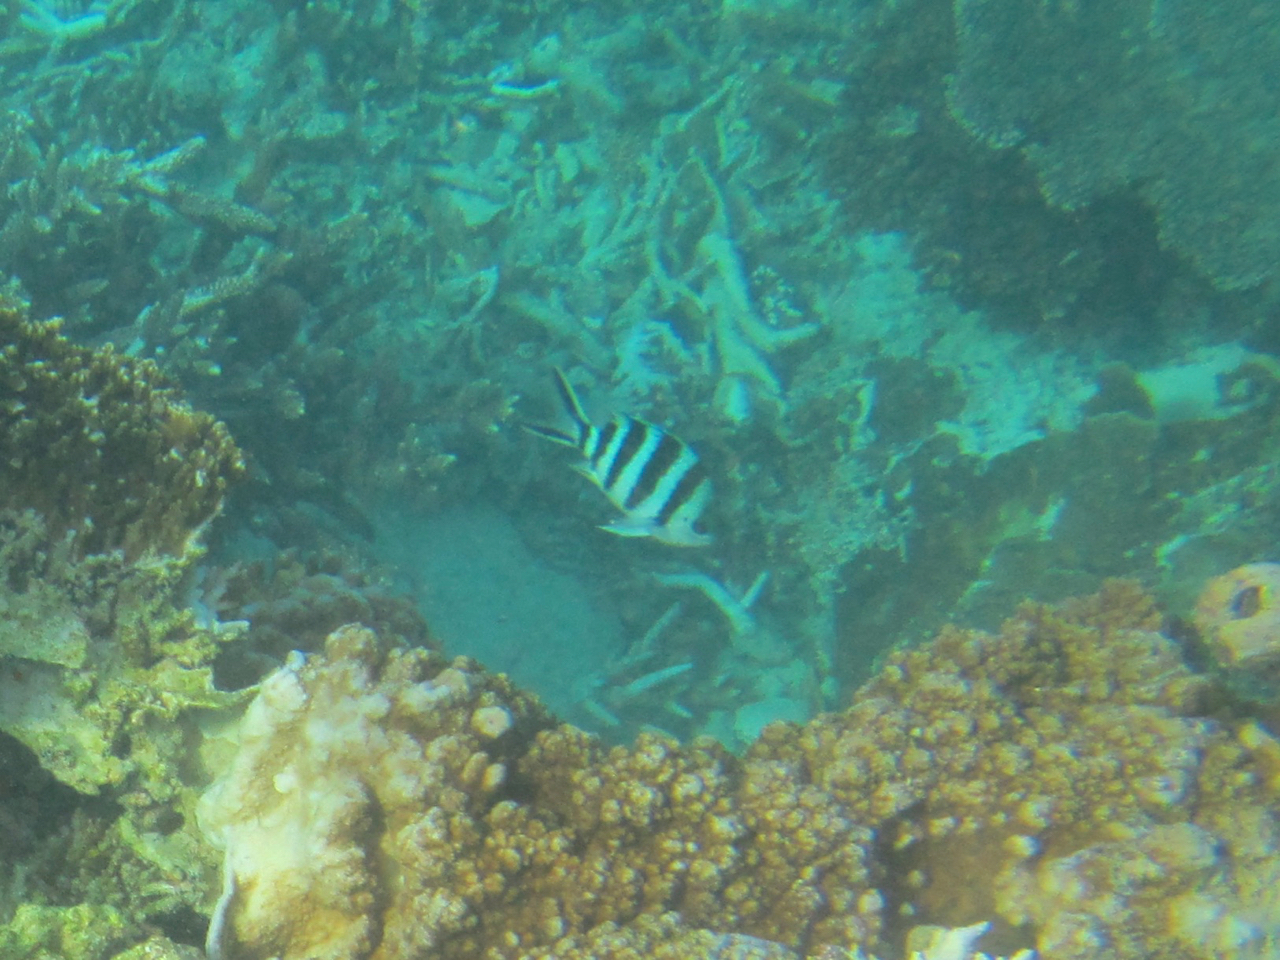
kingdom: Animalia
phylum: Chordata
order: Perciformes
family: Pomacentridae
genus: Abudefduf
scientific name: Abudefduf sexfasciatus
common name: Scissortail sergeant
